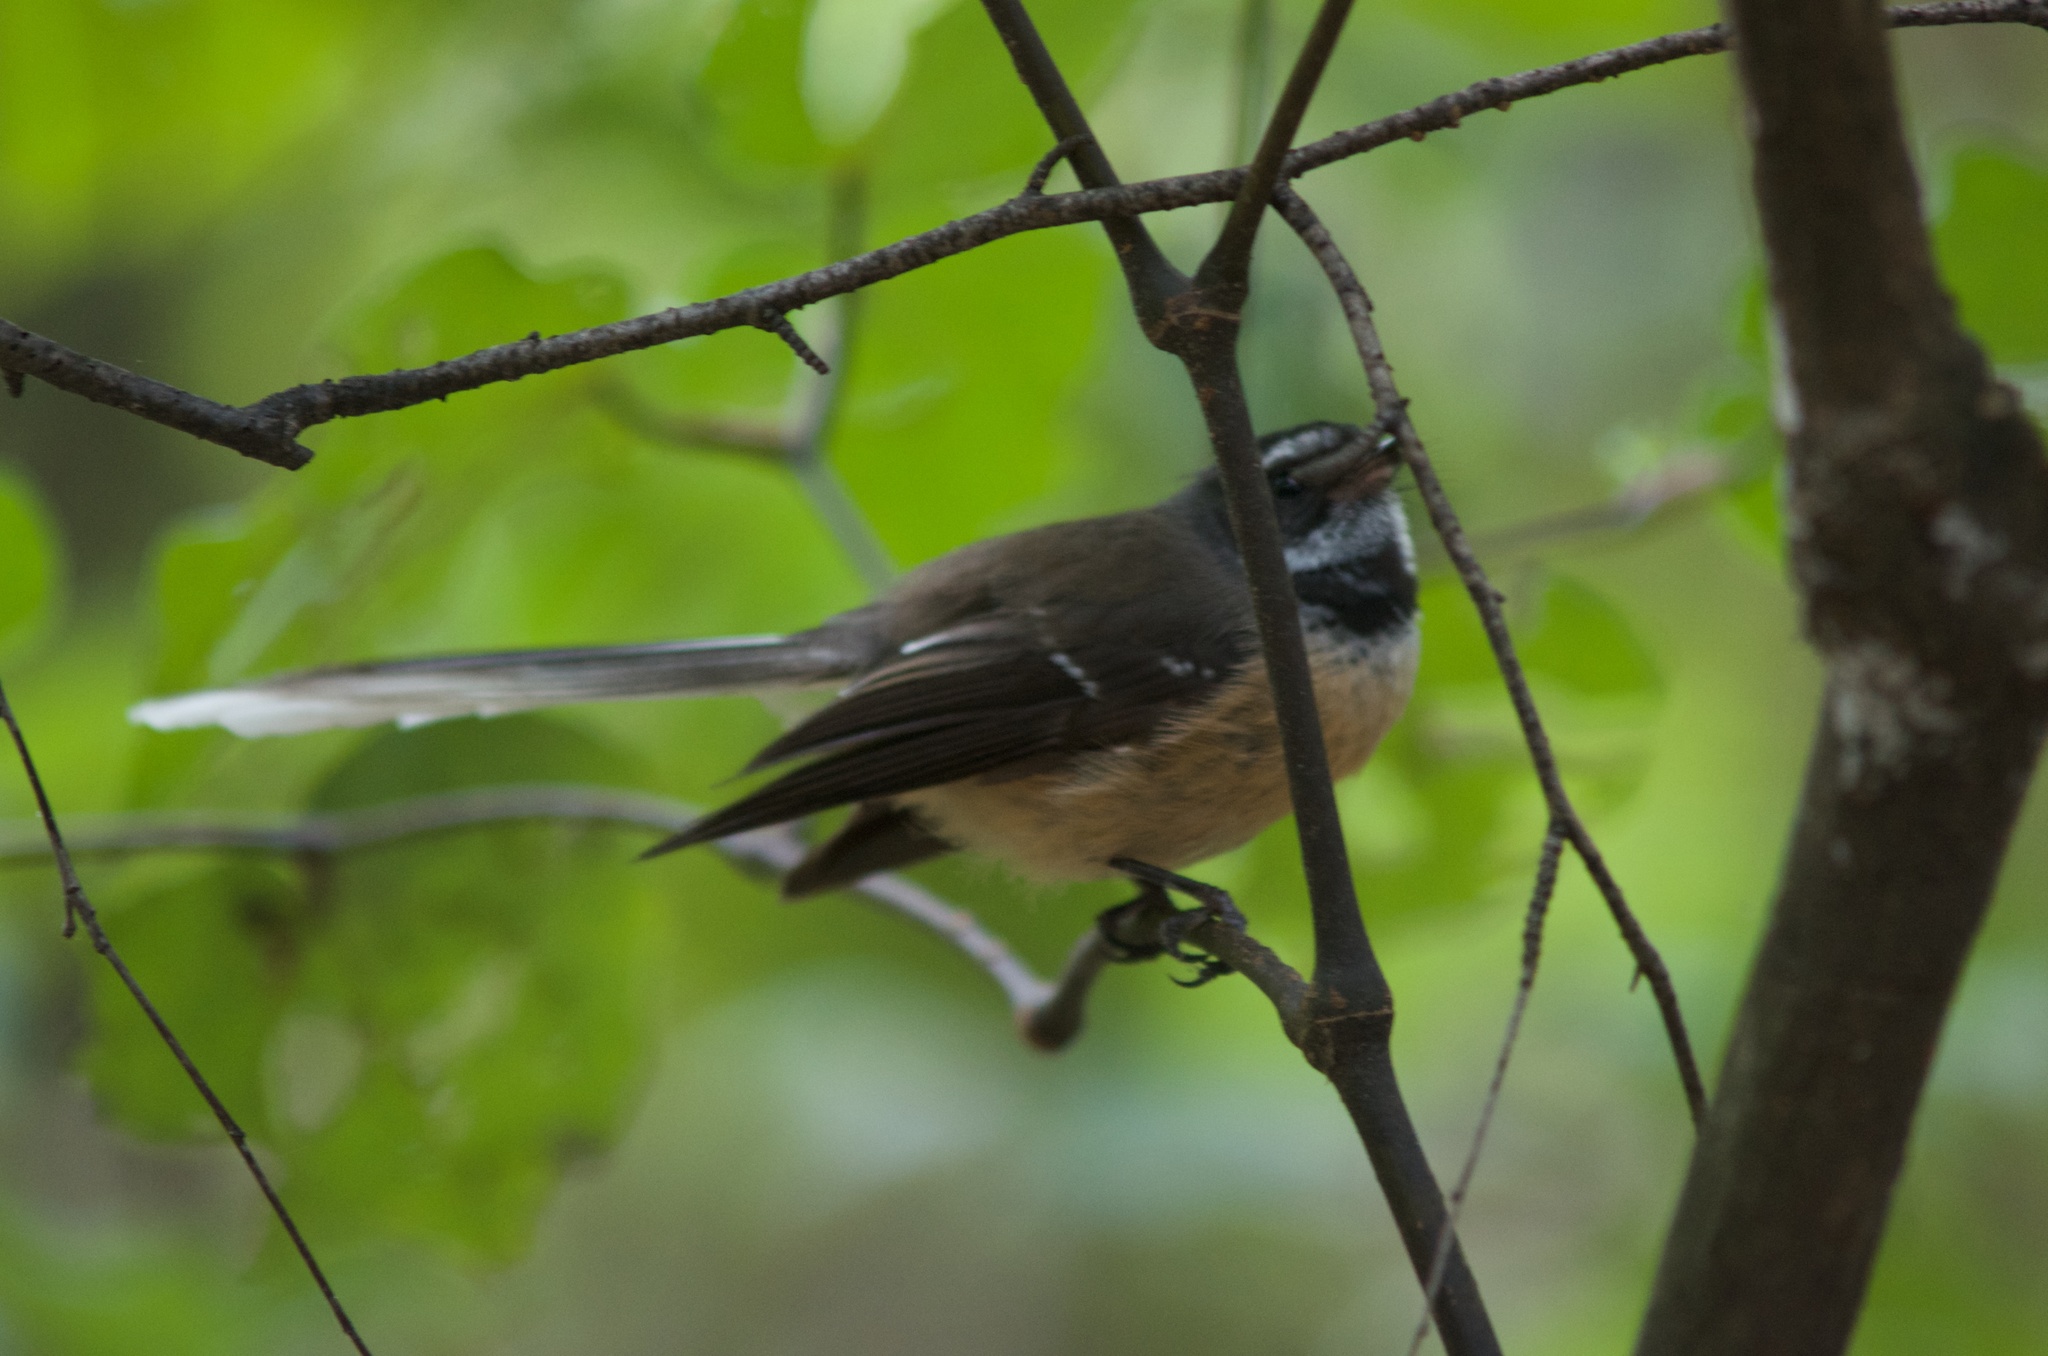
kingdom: Animalia
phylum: Chordata
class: Aves
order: Passeriformes
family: Rhipiduridae
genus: Rhipidura
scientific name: Rhipidura fuliginosa
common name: New zealand fantail
